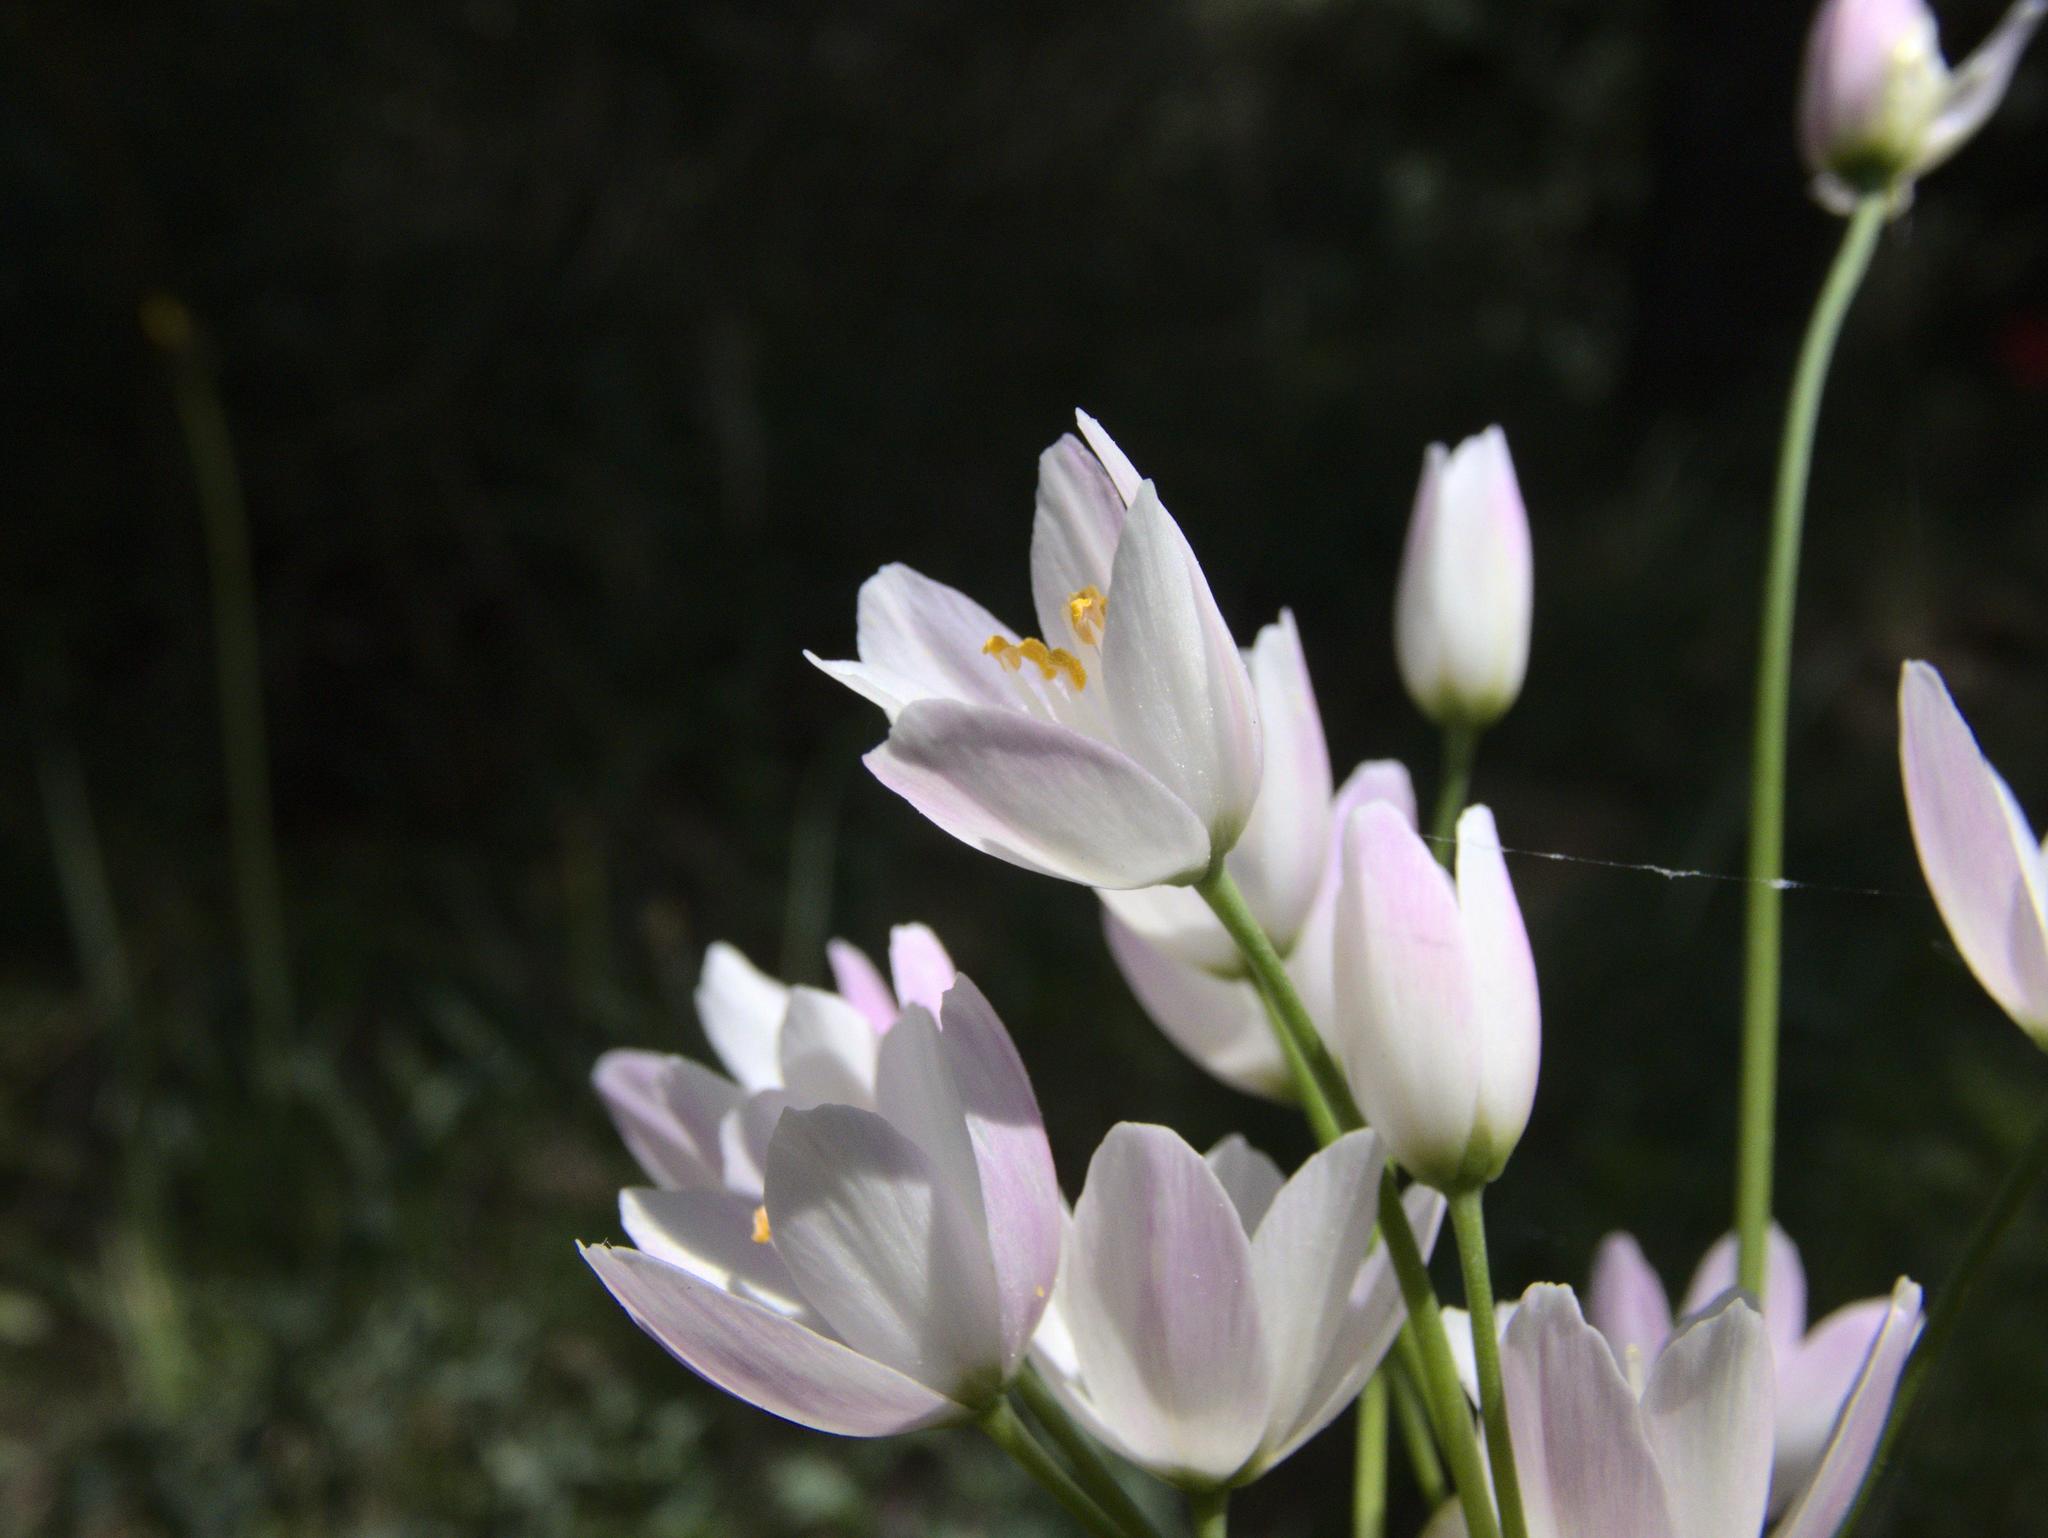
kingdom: Plantae
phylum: Tracheophyta
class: Liliopsida
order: Asparagales
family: Amaryllidaceae
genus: Allium
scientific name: Allium roseum
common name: Rosy garlic
